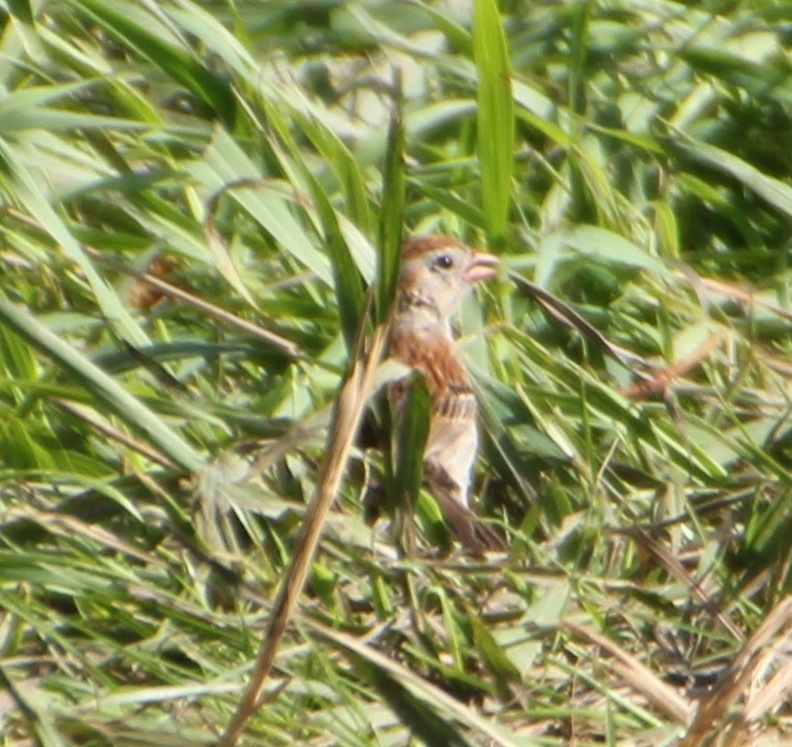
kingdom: Animalia
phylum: Chordata
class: Aves
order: Passeriformes
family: Passerellidae
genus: Spizella
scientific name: Spizella pusilla
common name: Field sparrow
